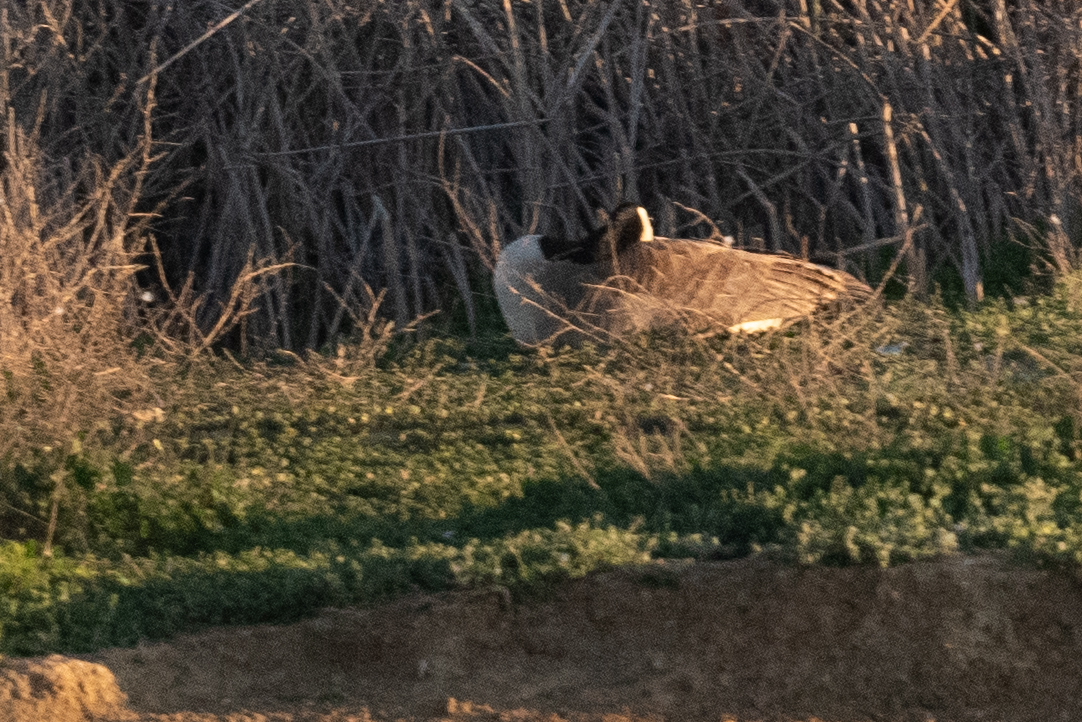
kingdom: Animalia
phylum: Chordata
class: Aves
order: Anseriformes
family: Anatidae
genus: Branta
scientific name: Branta canadensis
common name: Canada goose
